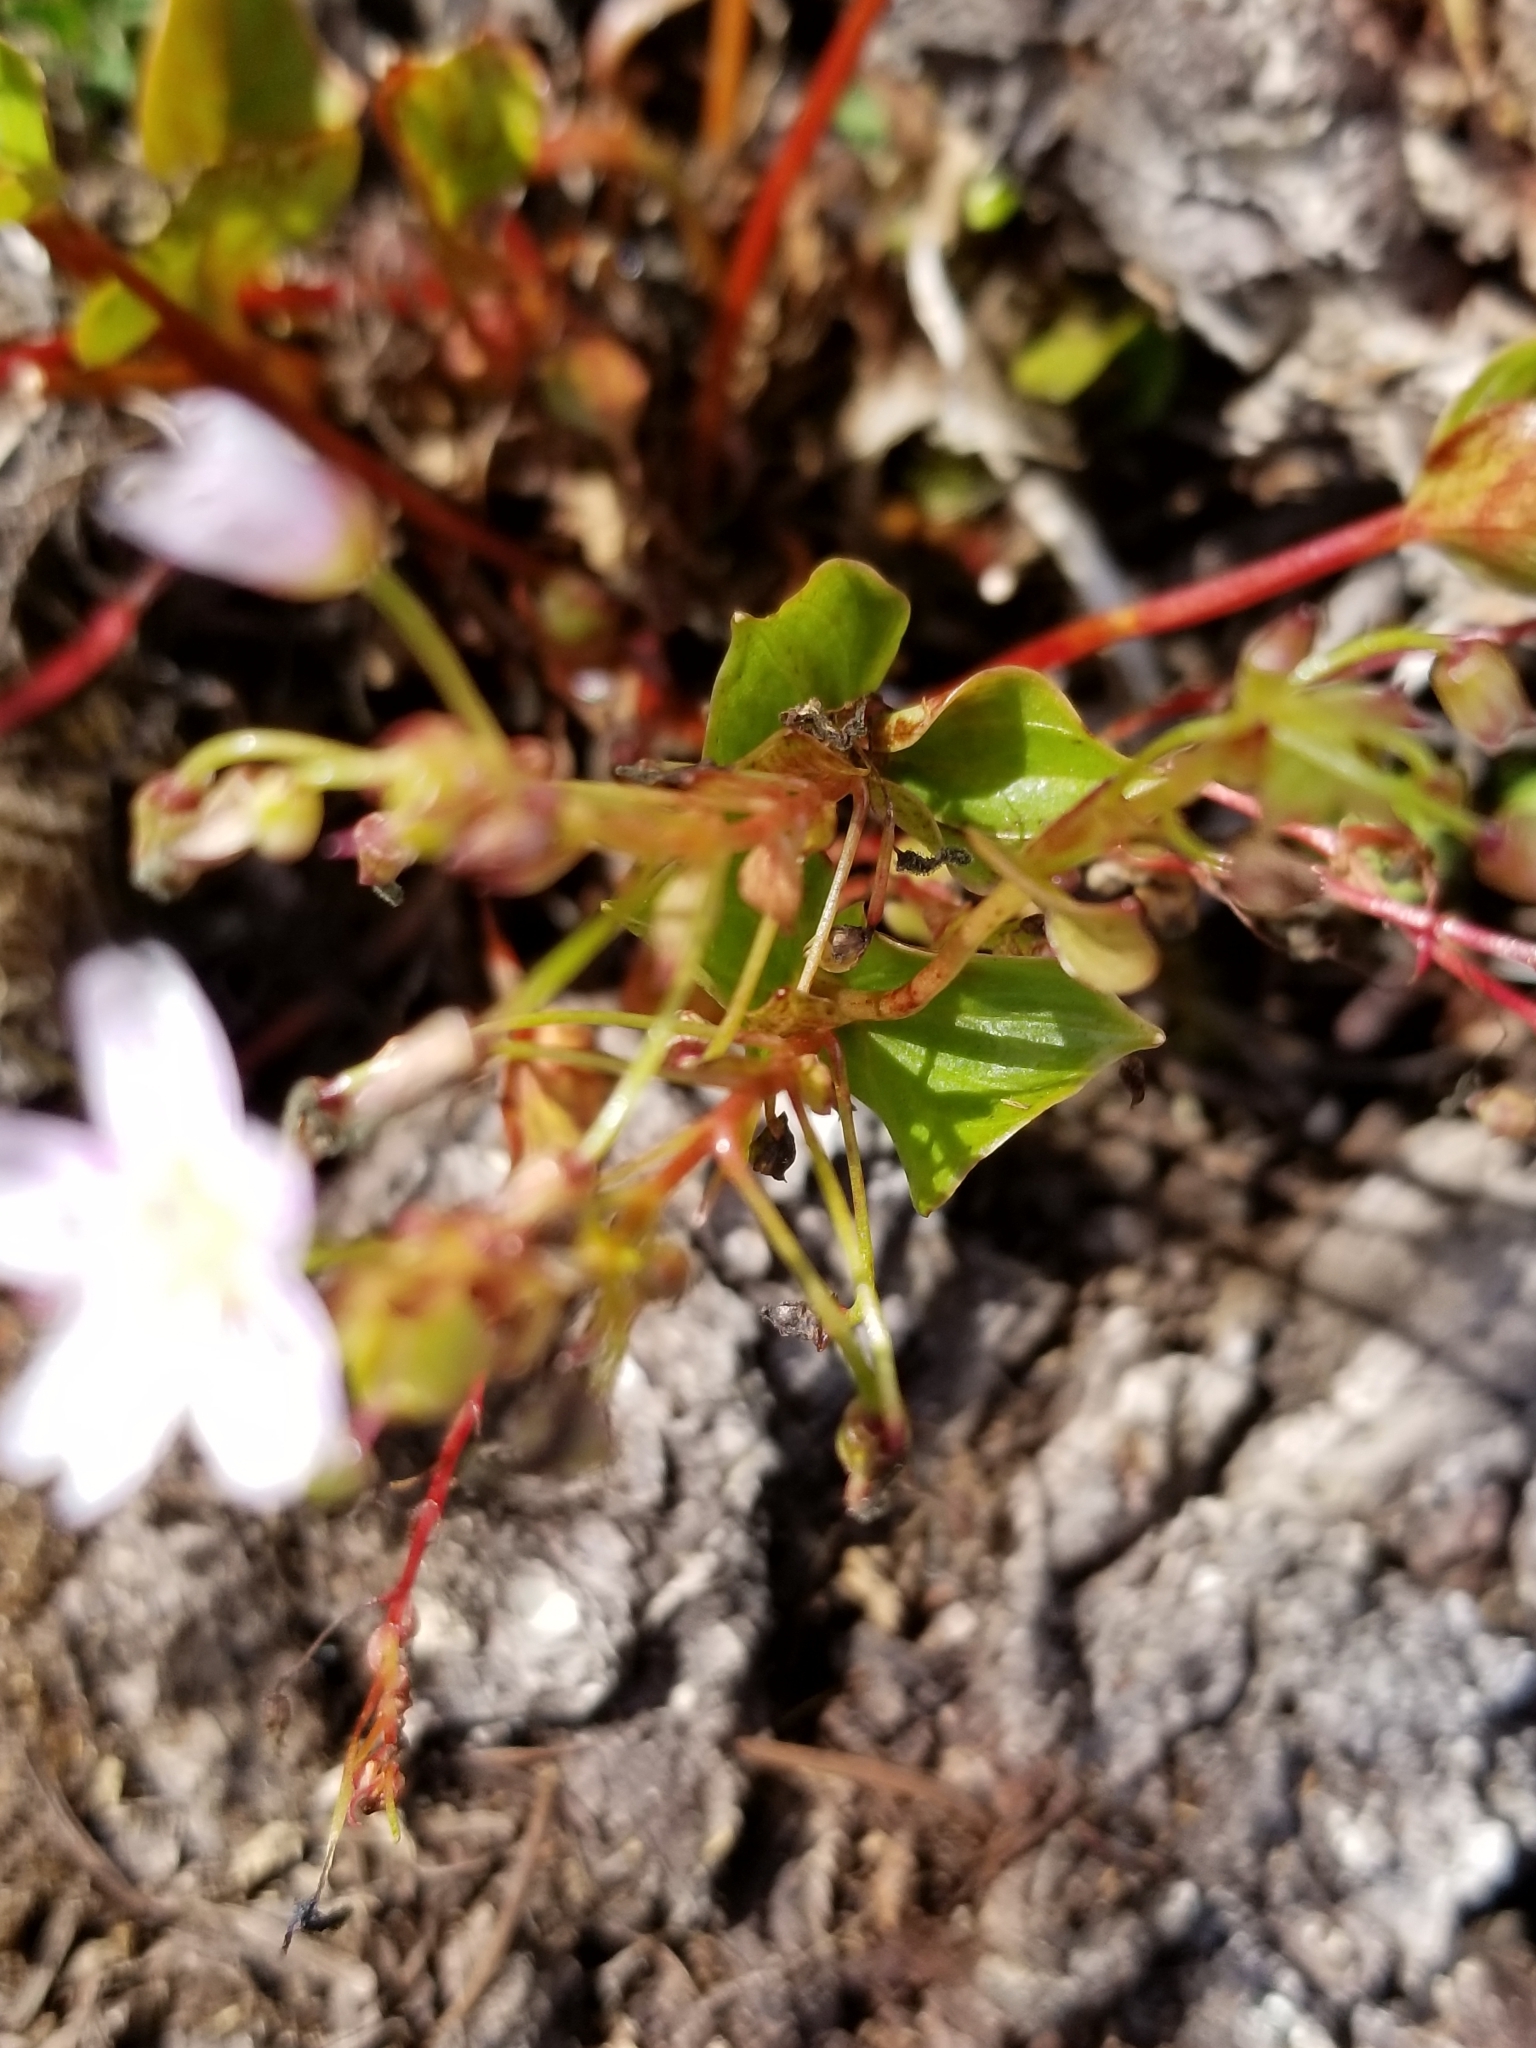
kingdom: Plantae
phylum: Tracheophyta
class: Magnoliopsida
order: Caryophyllales
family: Montiaceae
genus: Claytonia
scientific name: Claytonia sibirica
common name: Pink purslane
